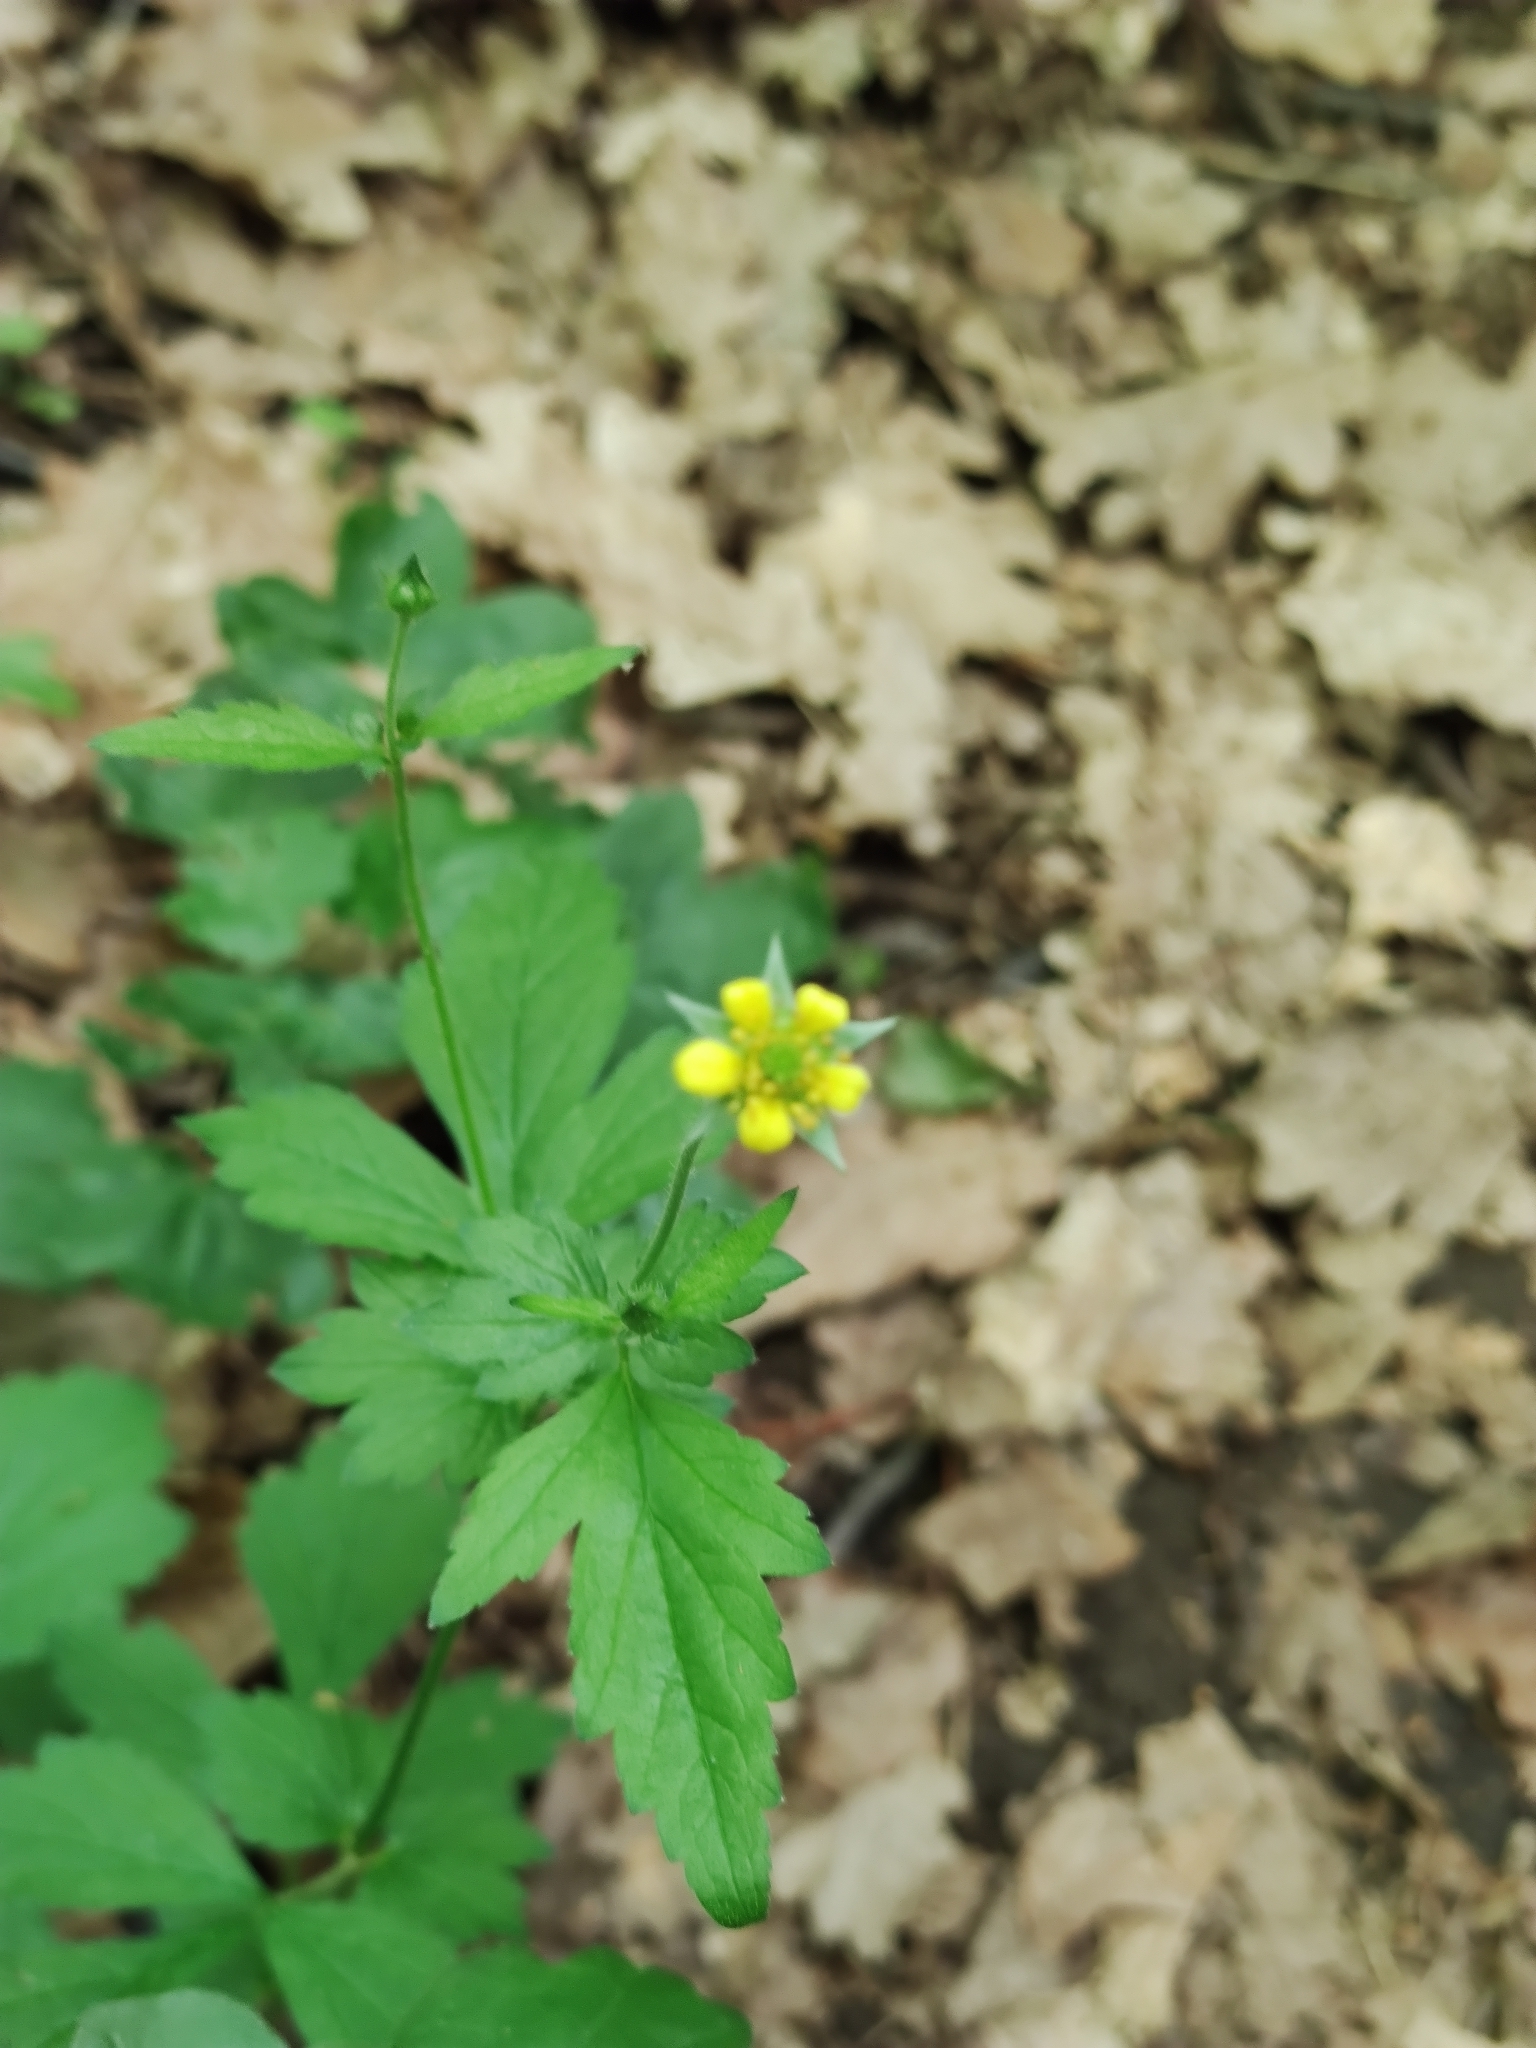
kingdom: Plantae
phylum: Tracheophyta
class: Magnoliopsida
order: Rosales
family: Rosaceae
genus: Geum
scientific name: Geum urbanum
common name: Wood avens
